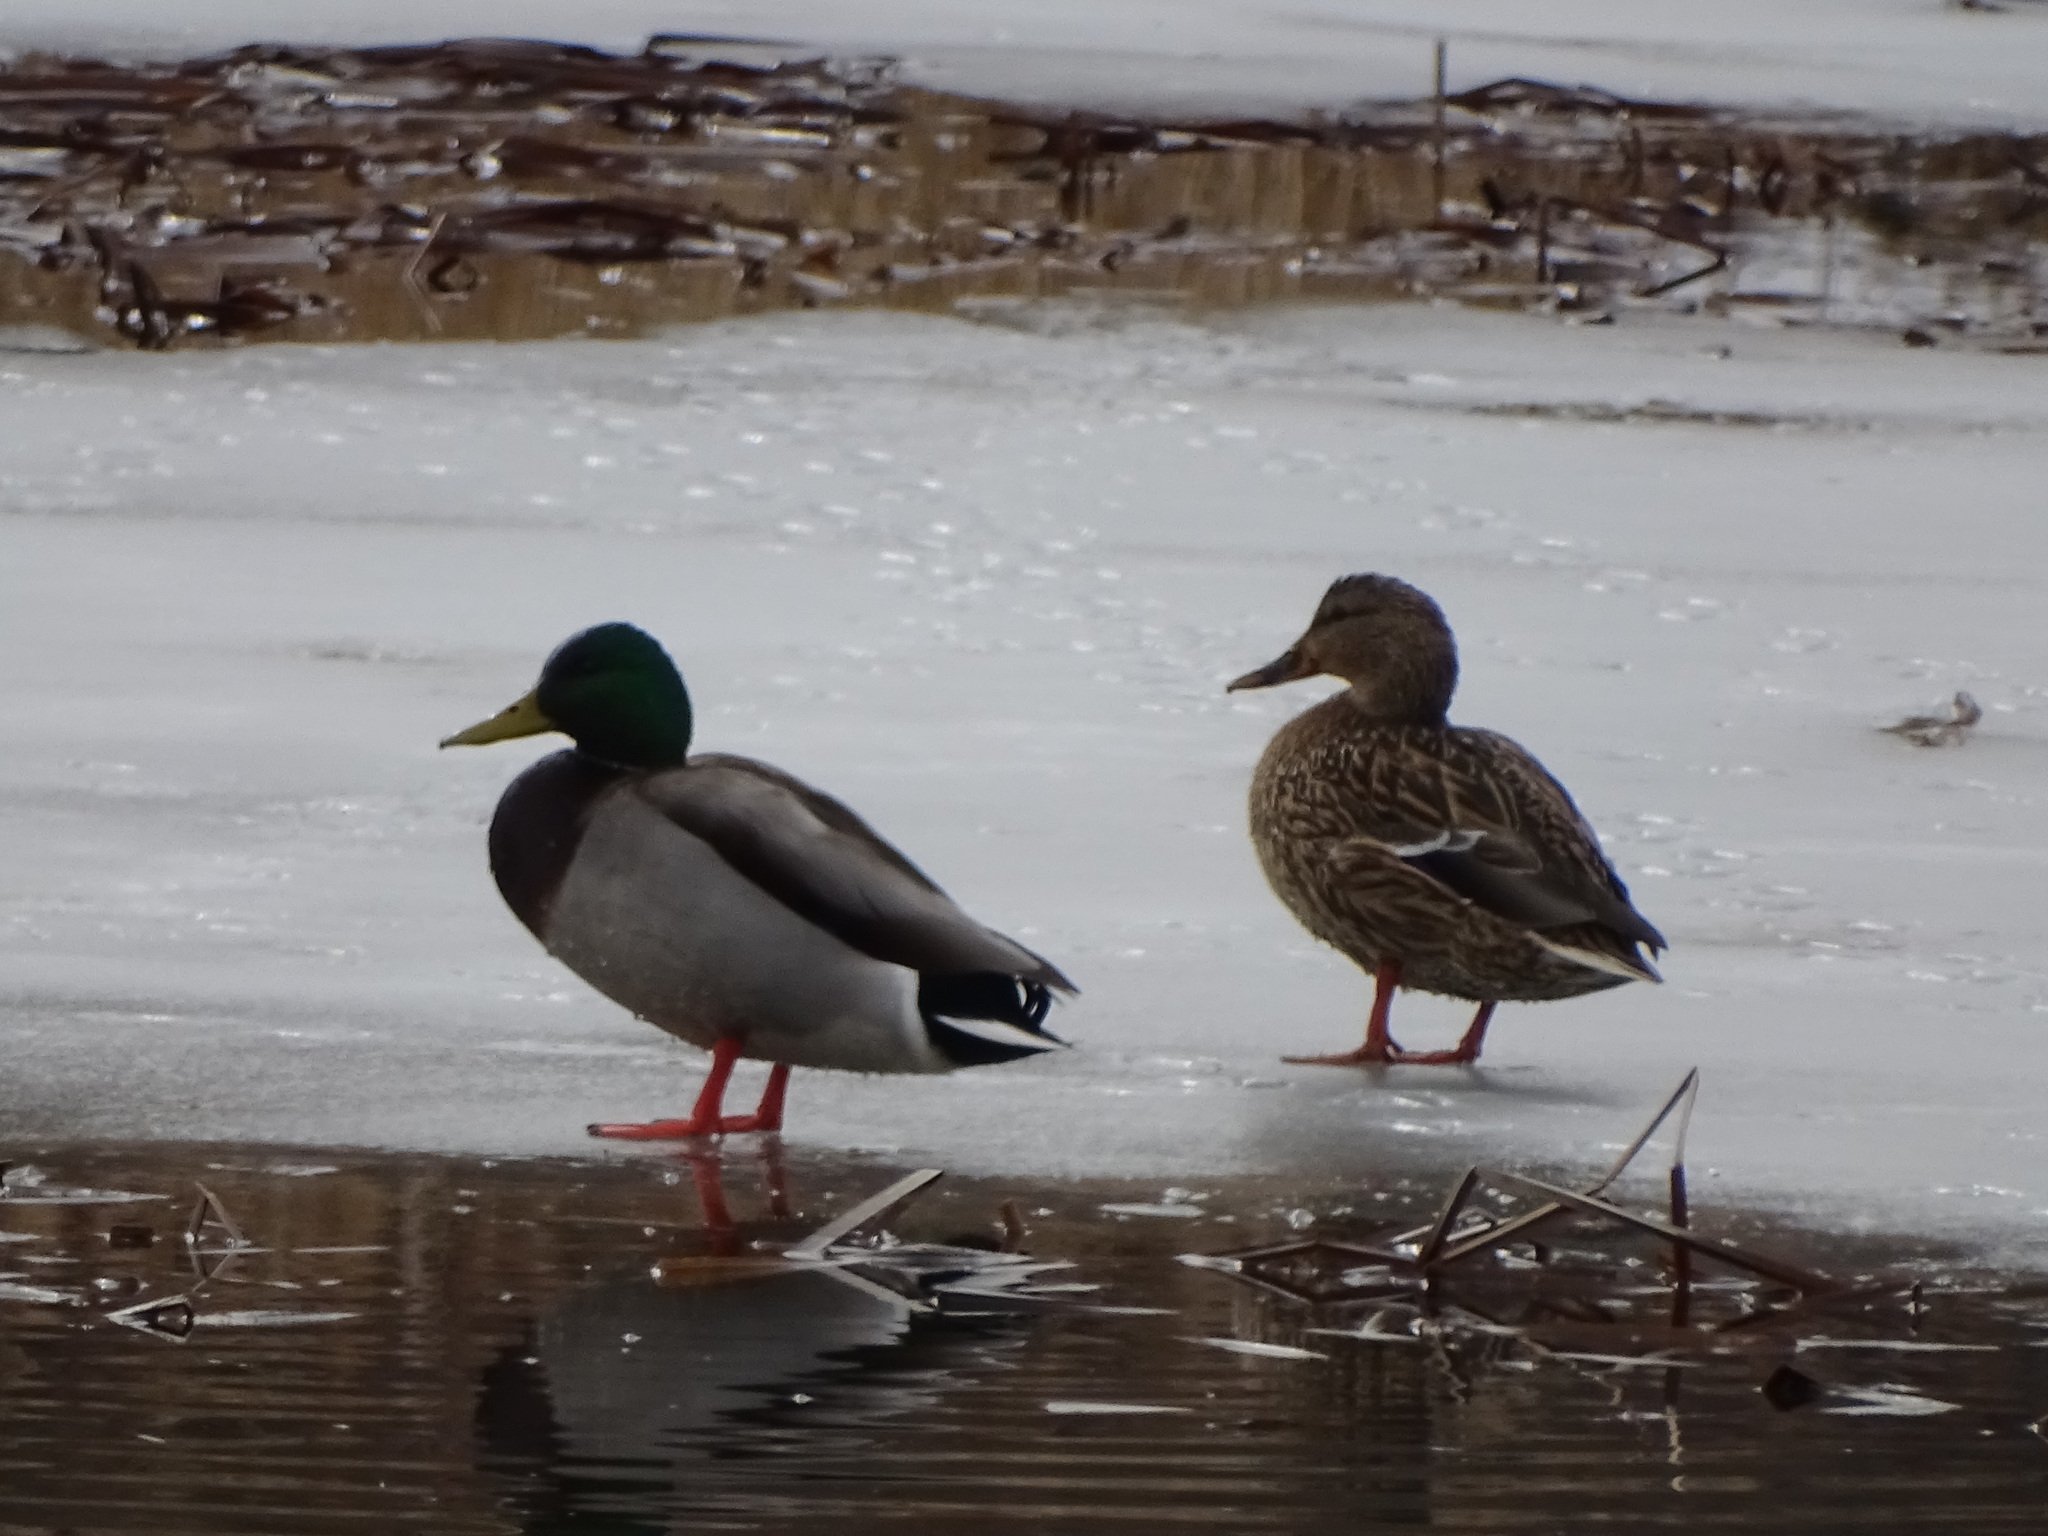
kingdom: Animalia
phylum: Chordata
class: Aves
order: Anseriformes
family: Anatidae
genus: Anas
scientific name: Anas platyrhynchos
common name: Mallard
